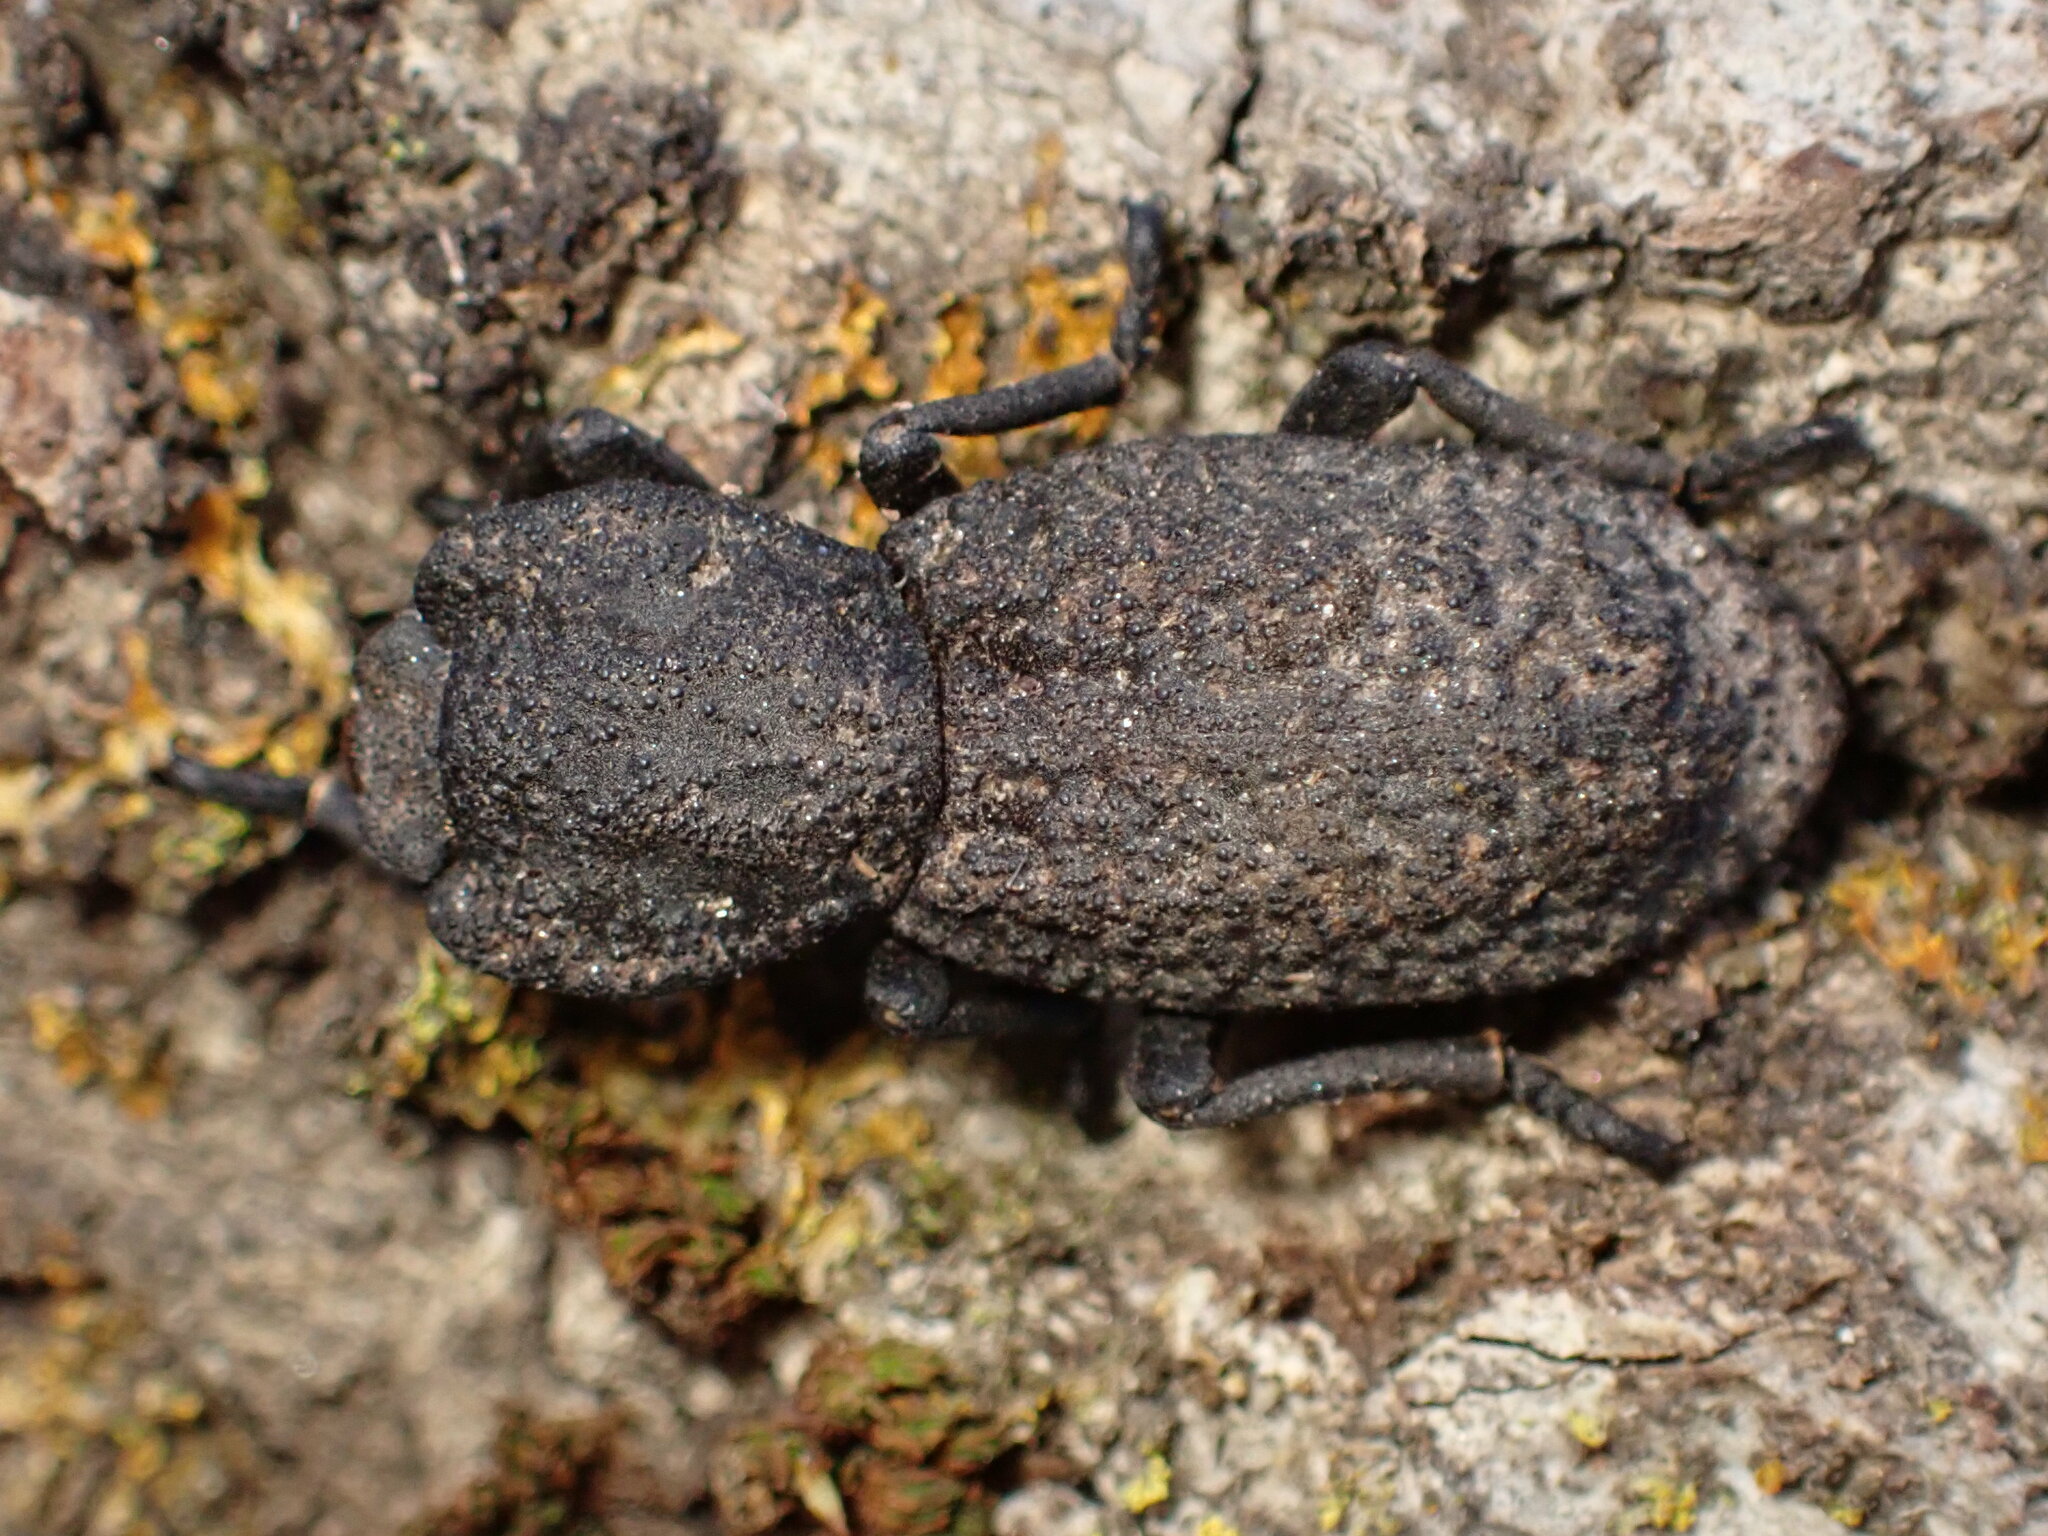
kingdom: Animalia
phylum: Arthropoda
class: Insecta
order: Coleoptera
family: Zopheridae
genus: Phloeodes
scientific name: Phloeodes diabolicus
